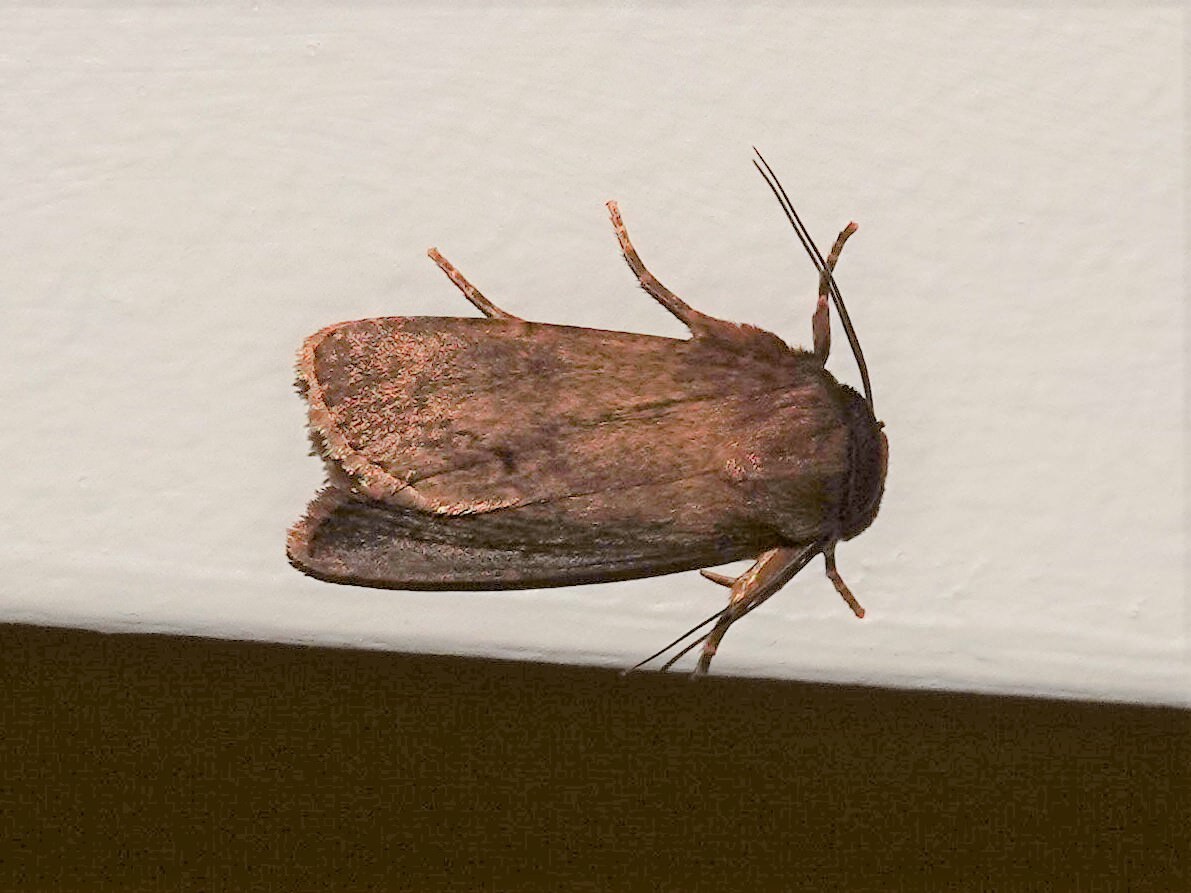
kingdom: Animalia
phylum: Arthropoda
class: Insecta
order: Lepidoptera
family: Noctuidae
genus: Bityla
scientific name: Bityla defigurata
